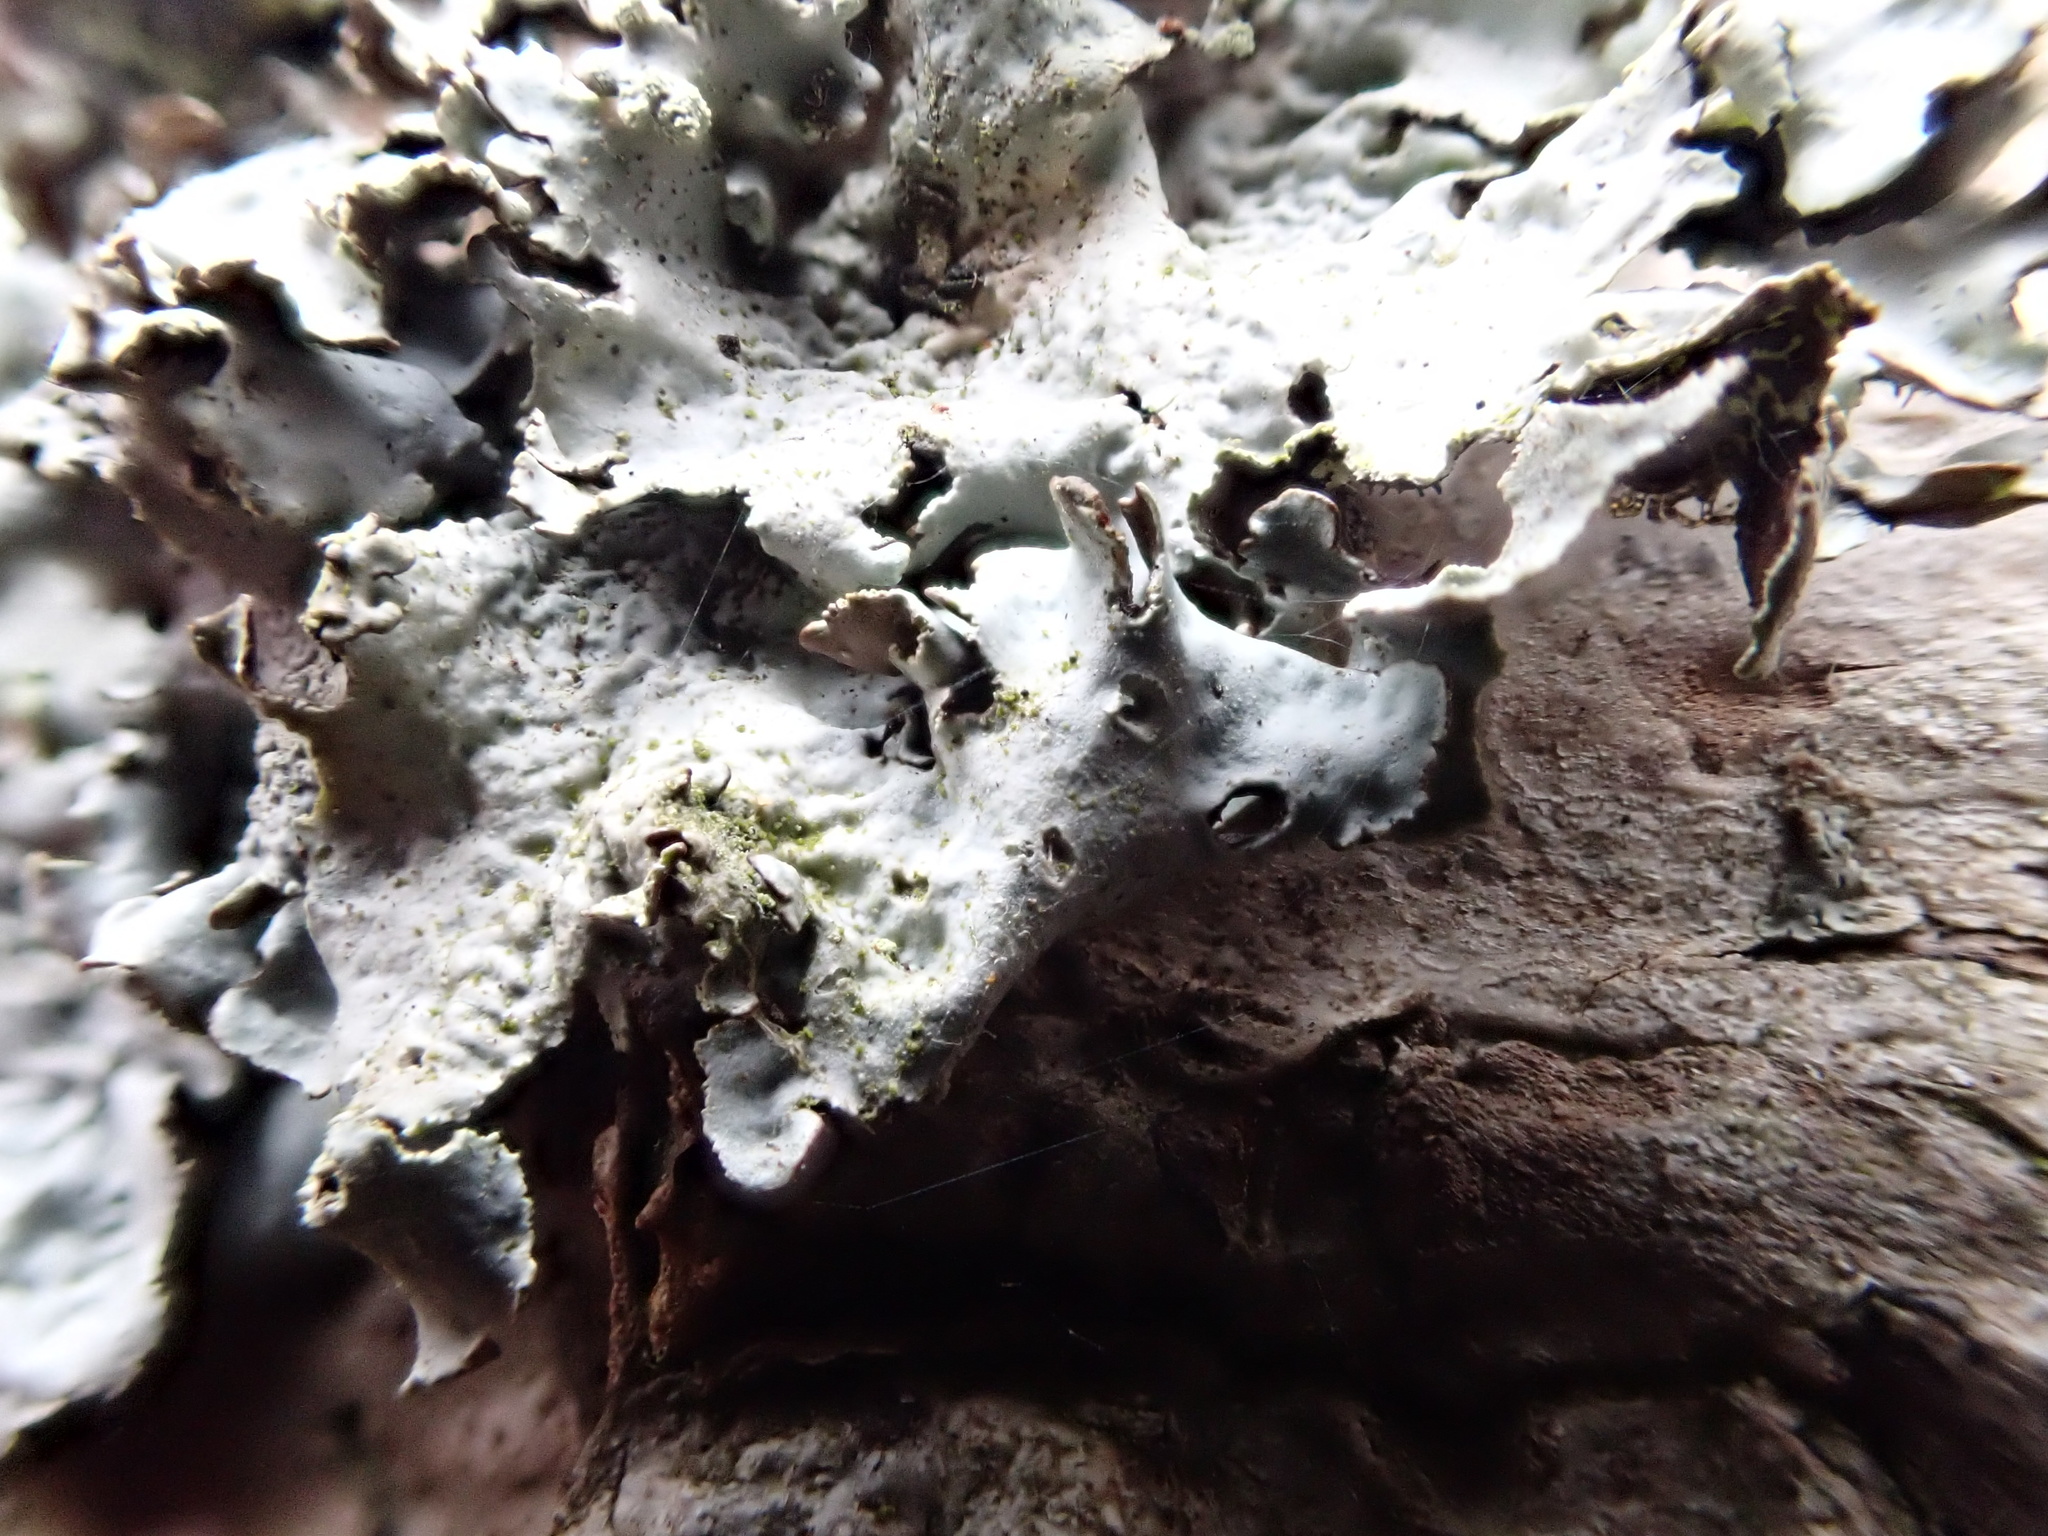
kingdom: Fungi
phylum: Ascomycota
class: Lecanoromycetes
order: Lecanorales
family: Parmeliaceae
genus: Parmotrema
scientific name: Parmotrema perlatum
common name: Black stone flower
